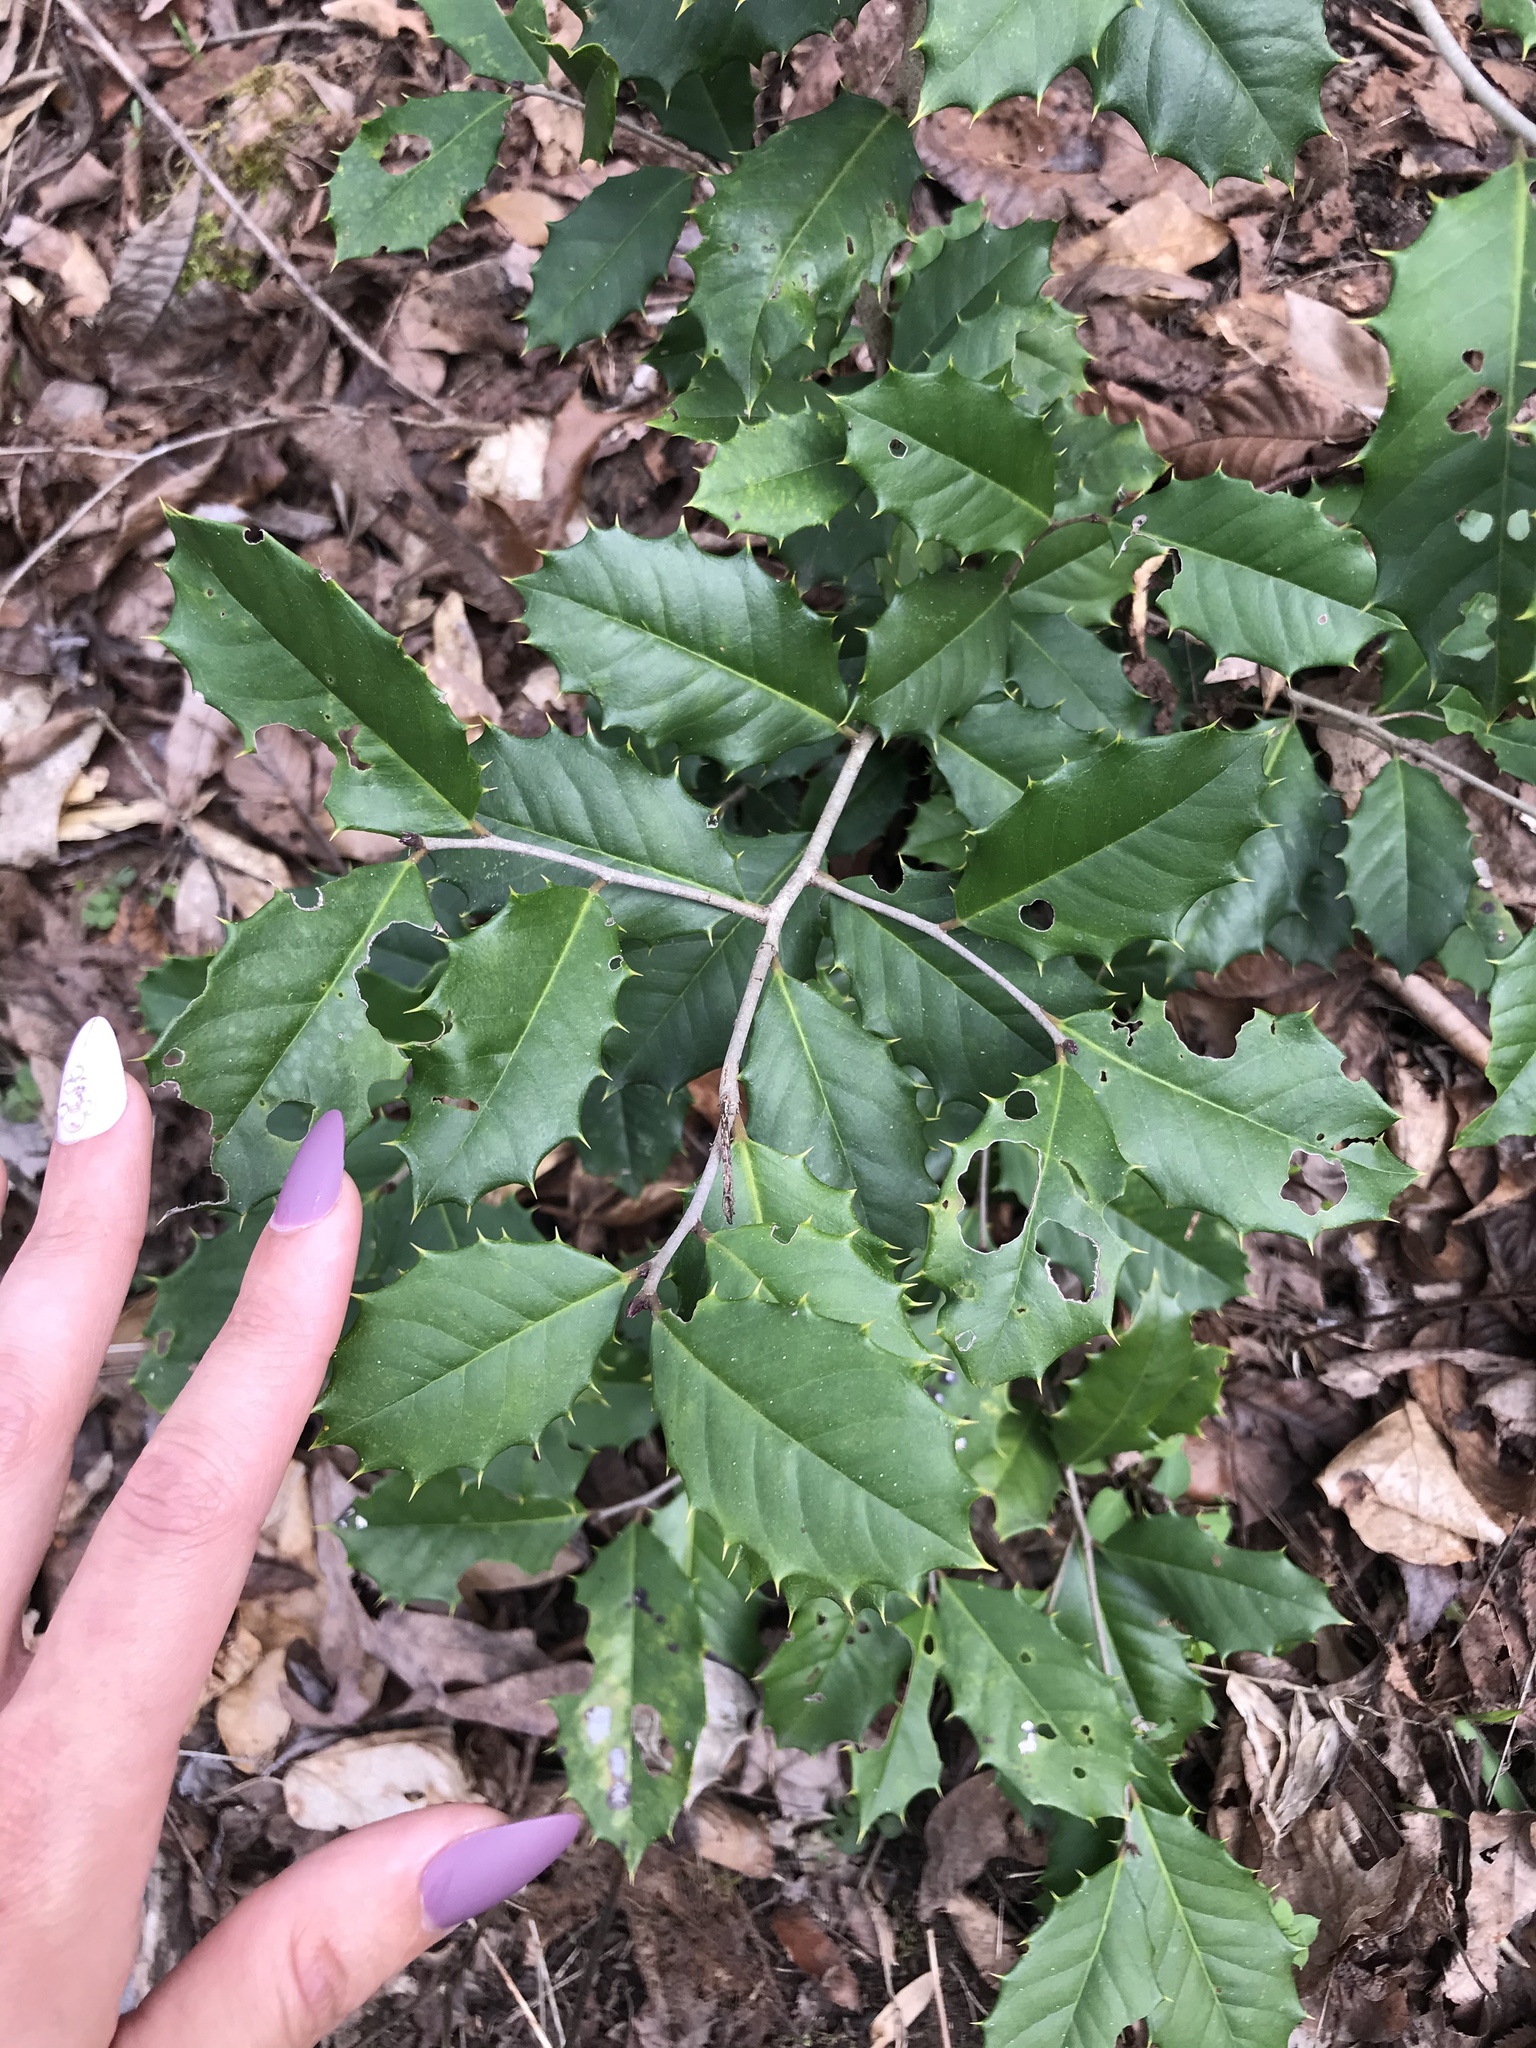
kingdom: Plantae
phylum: Tracheophyta
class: Magnoliopsida
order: Aquifoliales
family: Aquifoliaceae
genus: Ilex
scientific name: Ilex opaca
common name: American holly
